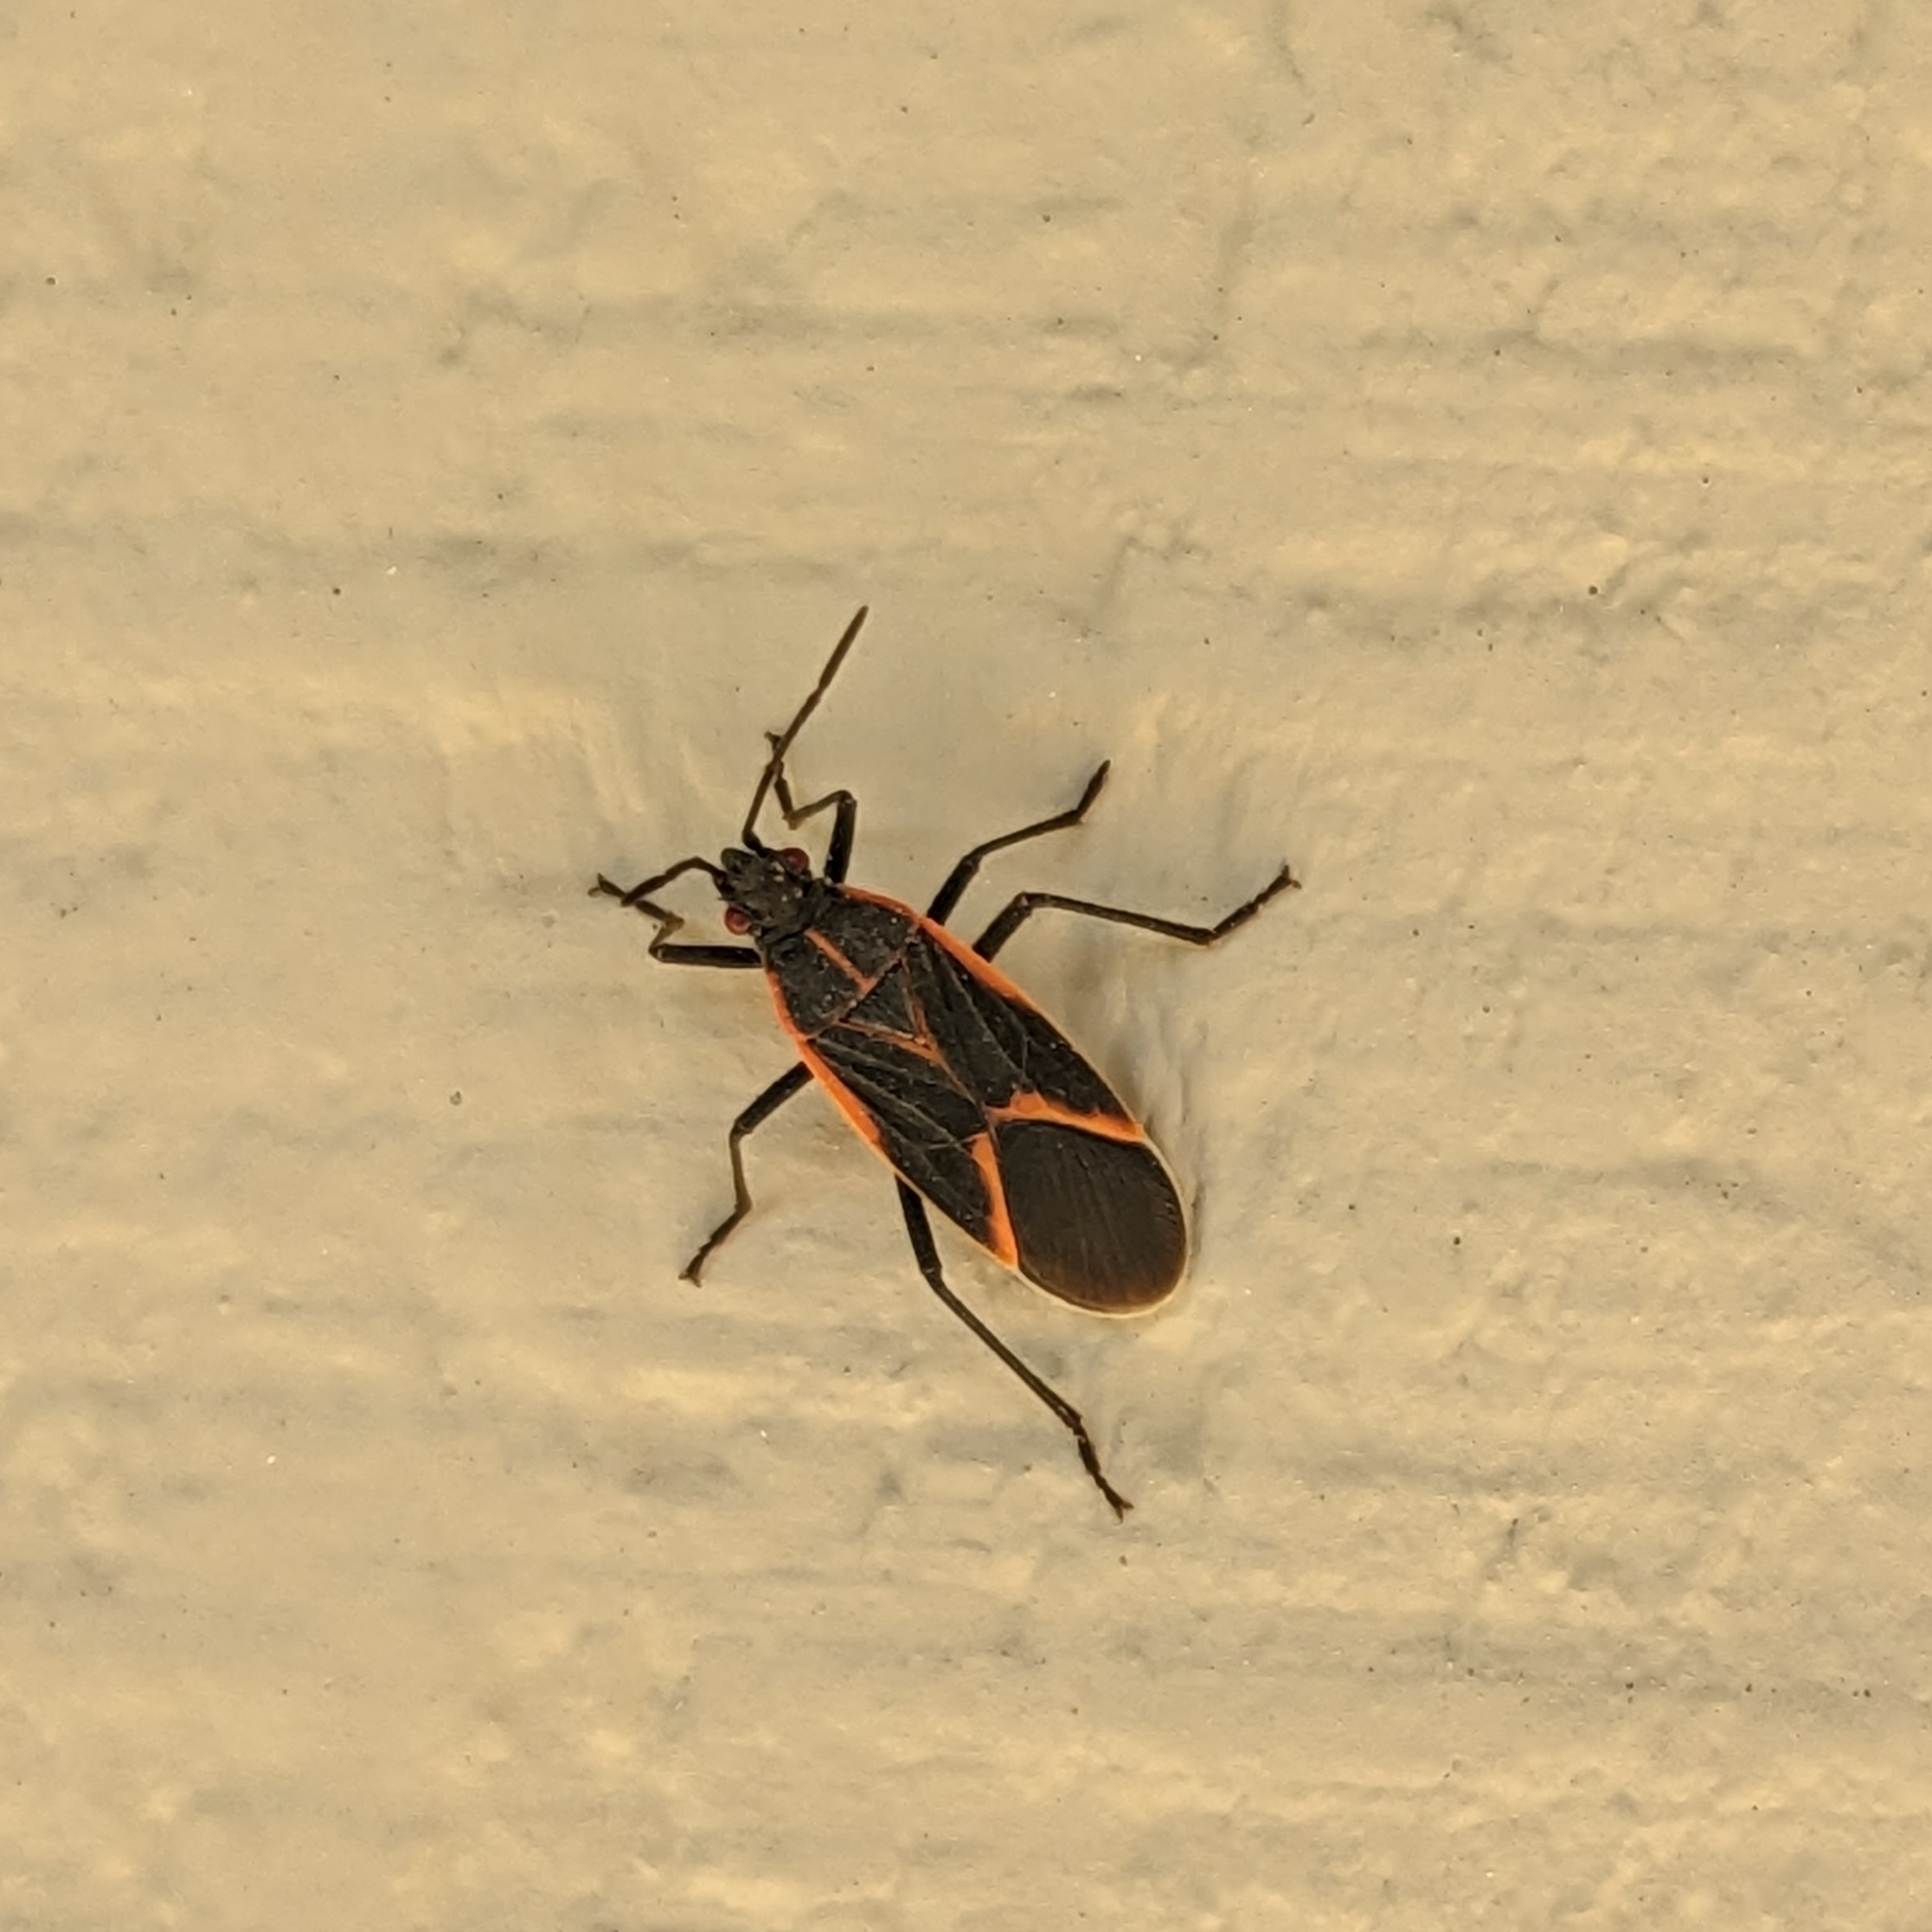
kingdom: Animalia
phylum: Arthropoda
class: Insecta
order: Hemiptera
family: Rhopalidae
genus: Boisea
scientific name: Boisea trivittata
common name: Boxelder bug
